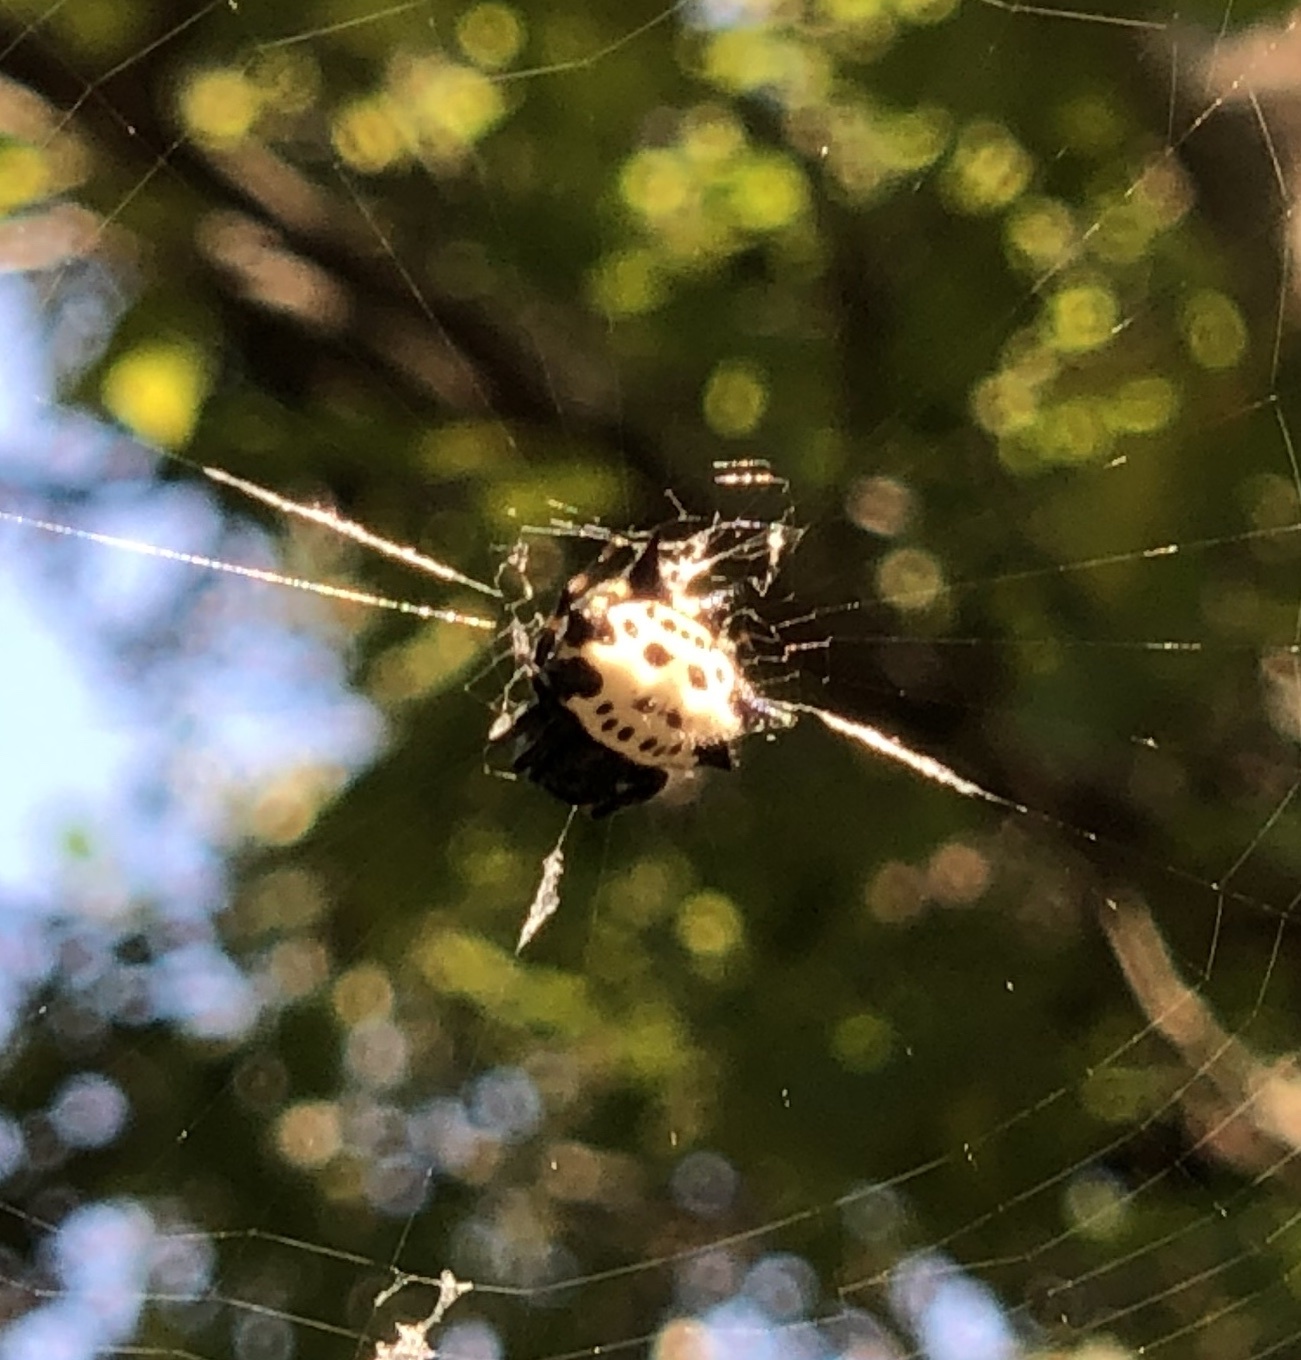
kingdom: Animalia
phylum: Arthropoda
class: Arachnida
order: Araneae
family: Araneidae
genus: Gasteracantha
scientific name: Gasteracantha cancriformis
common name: Orb weavers
